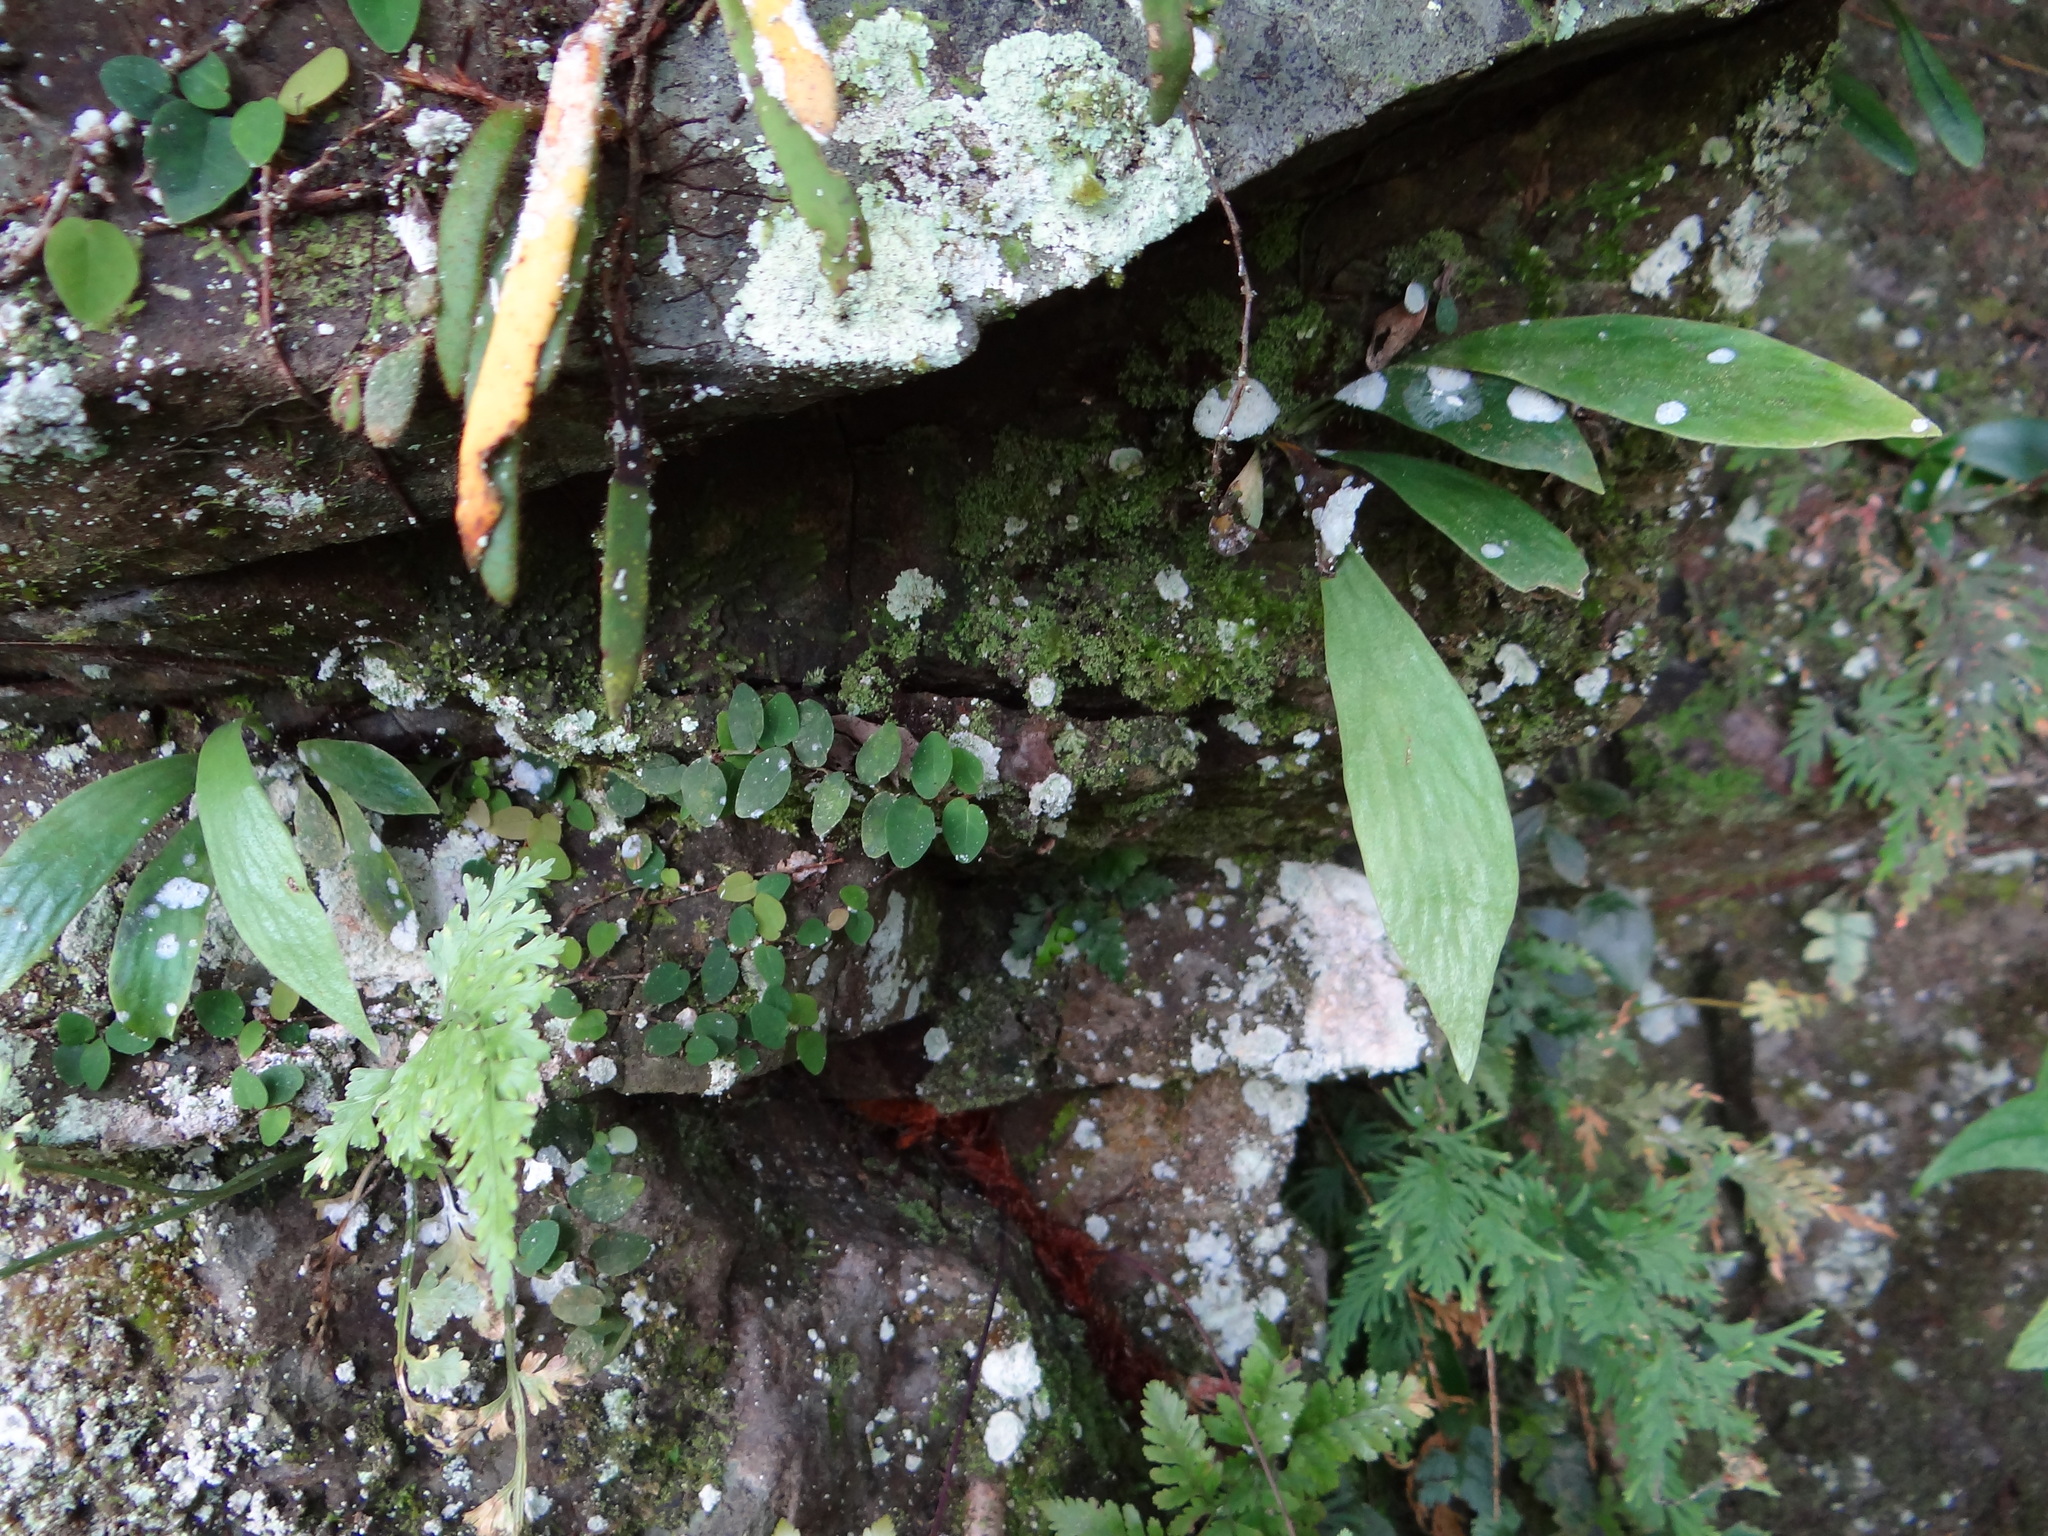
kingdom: Plantae
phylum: Tracheophyta
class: Polypodiopsida
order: Polypodiales
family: Pteridaceae
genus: Antrophyum
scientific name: Antrophyum formosanum
